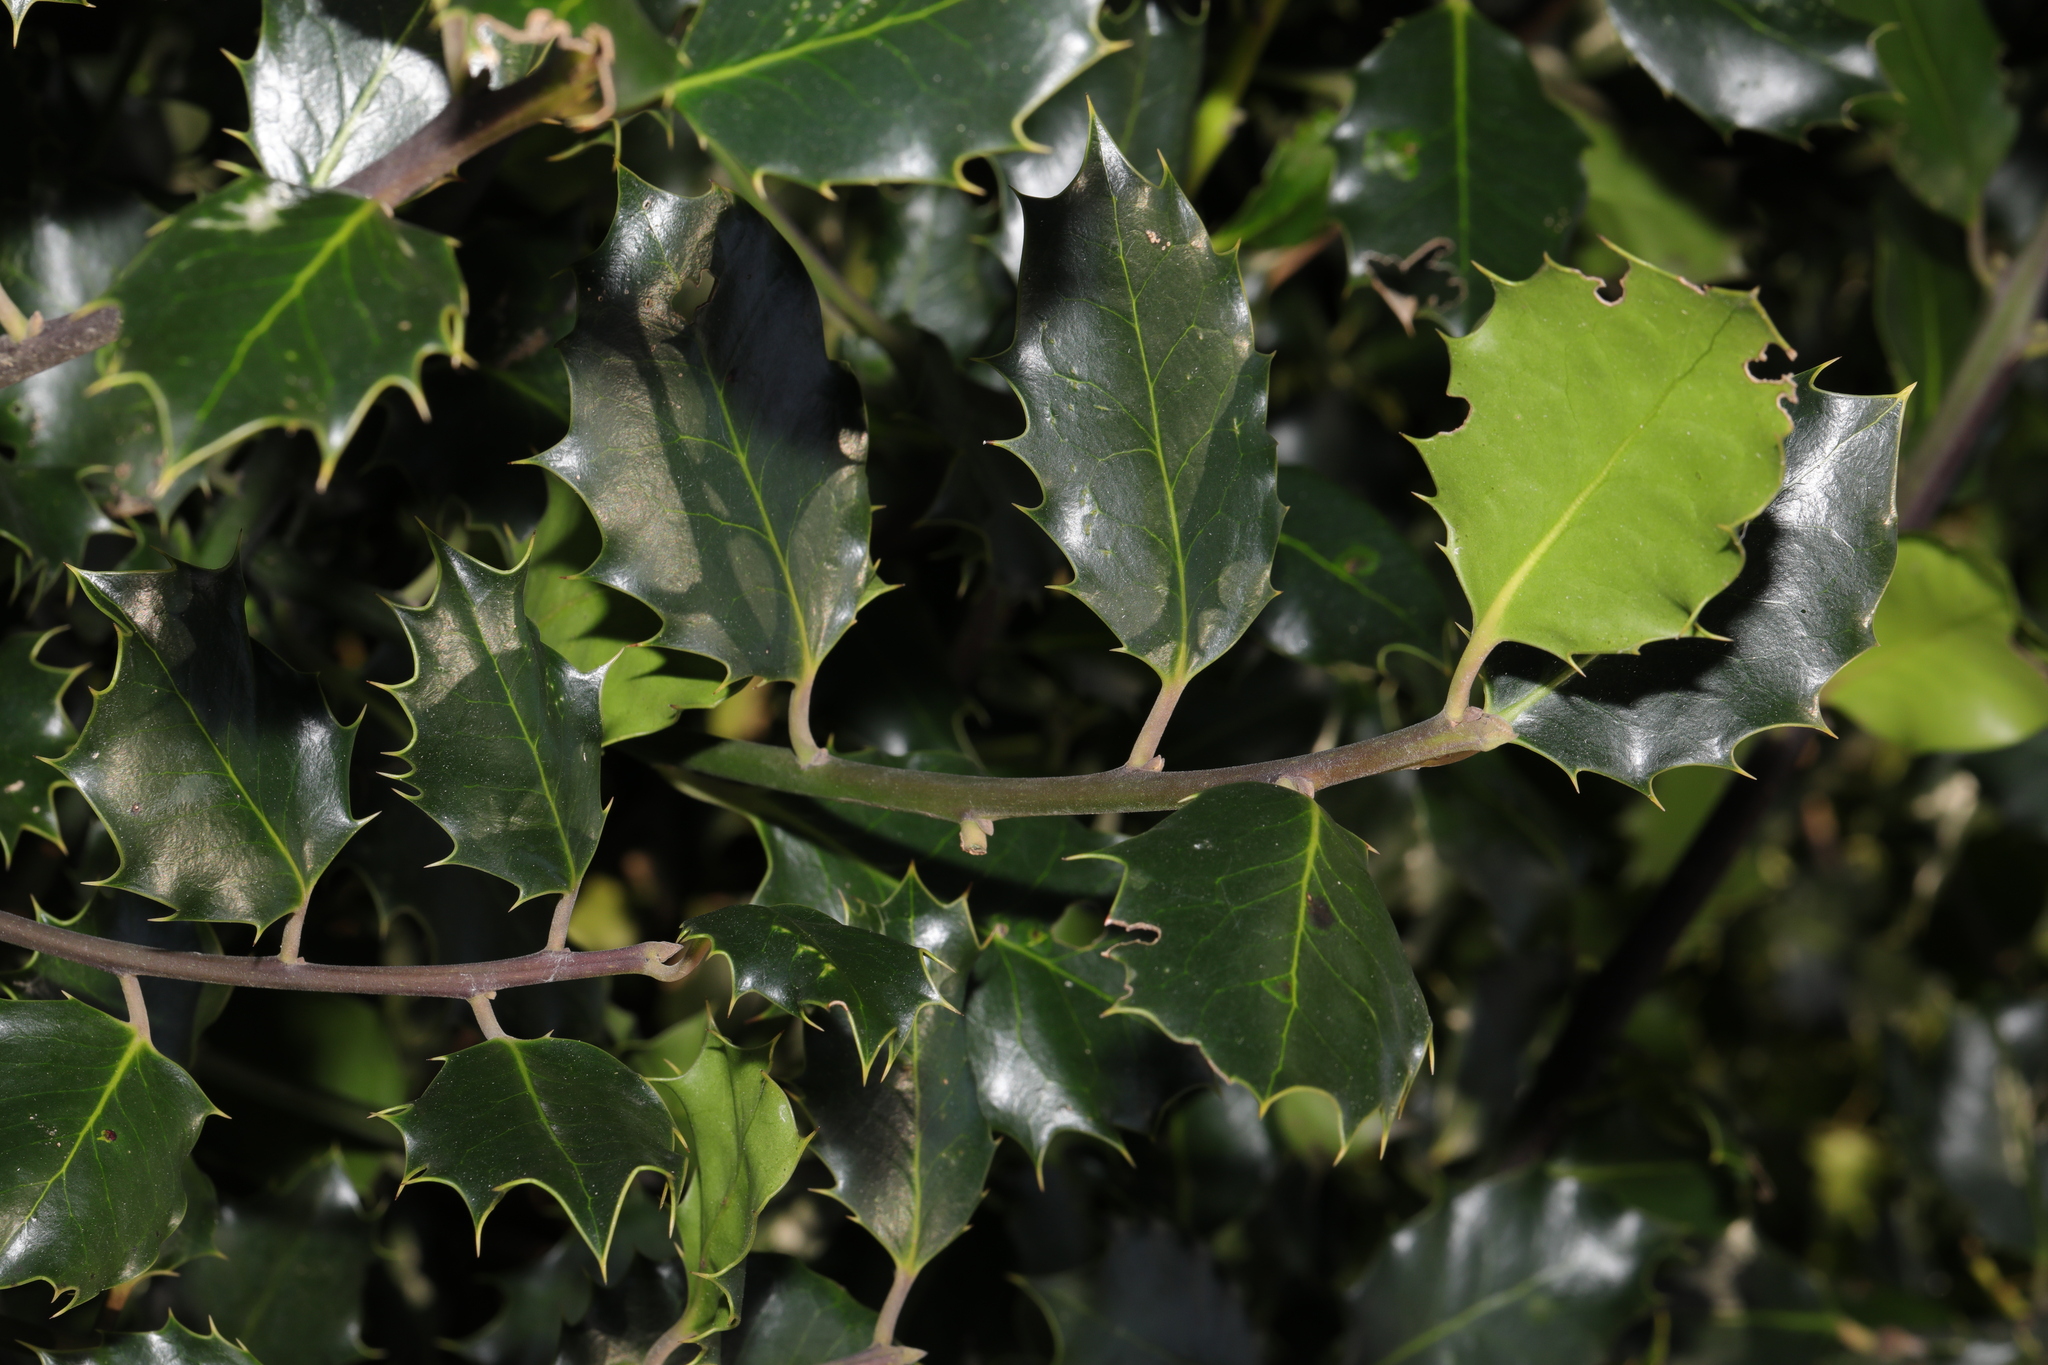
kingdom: Plantae
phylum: Tracheophyta
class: Magnoliopsida
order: Aquifoliales
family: Aquifoliaceae
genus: Ilex
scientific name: Ilex aquifolium
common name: English holly
